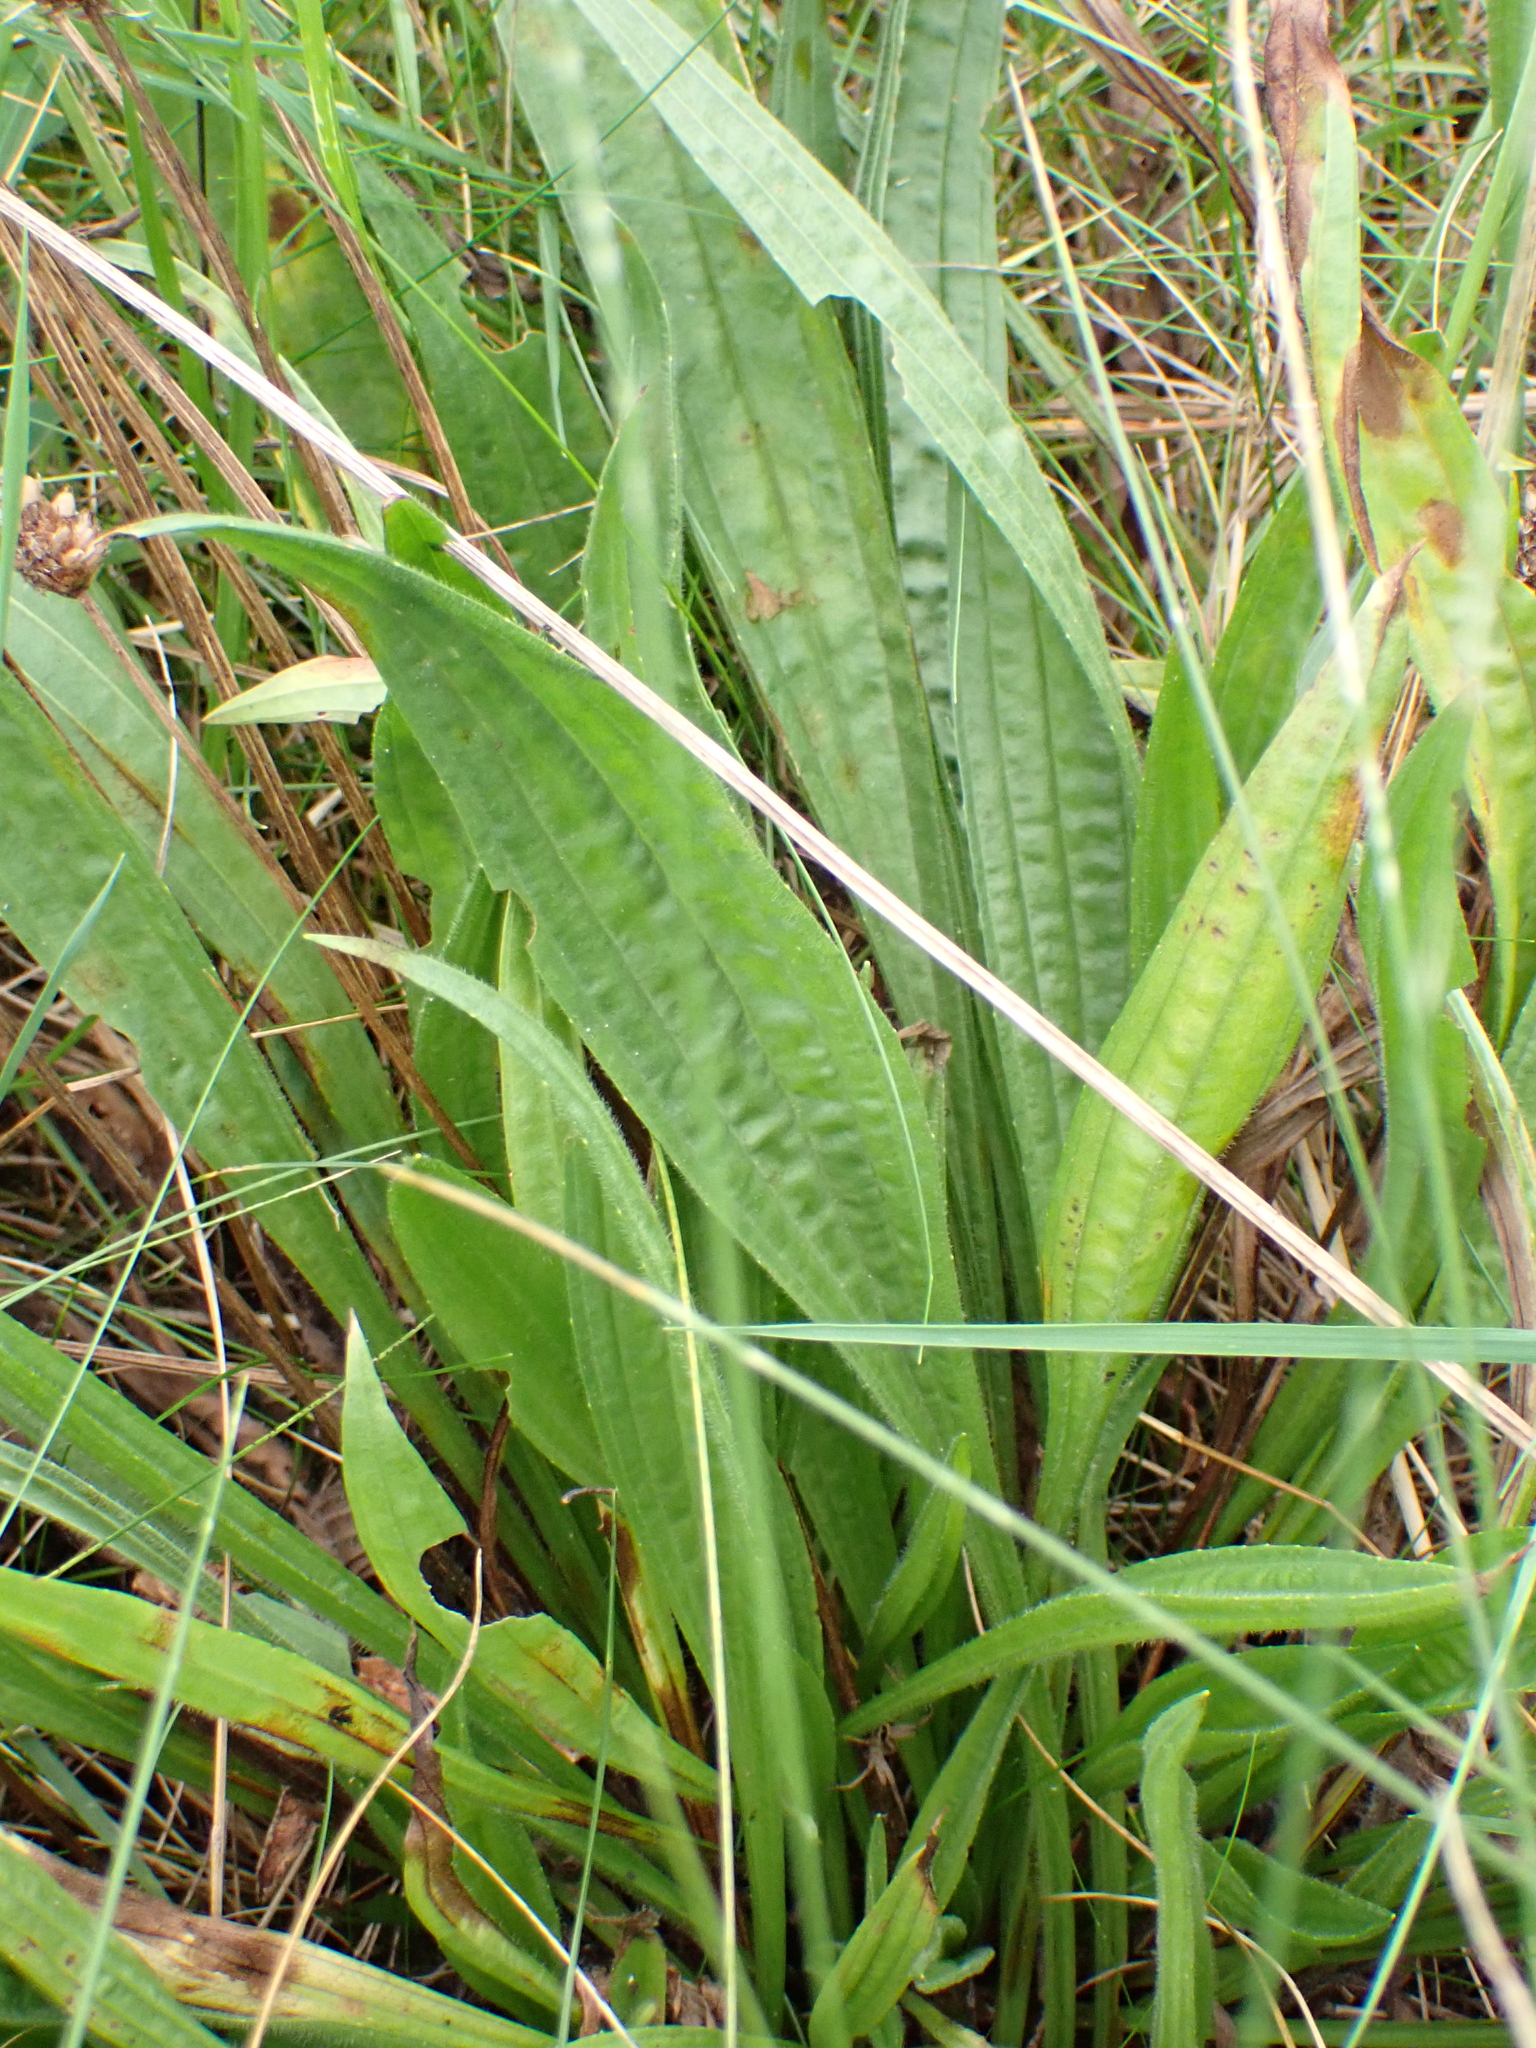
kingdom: Plantae
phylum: Tracheophyta
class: Magnoliopsida
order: Lamiales
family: Plantaginaceae
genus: Plantago
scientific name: Plantago lanceolata
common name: Ribwort plantain
